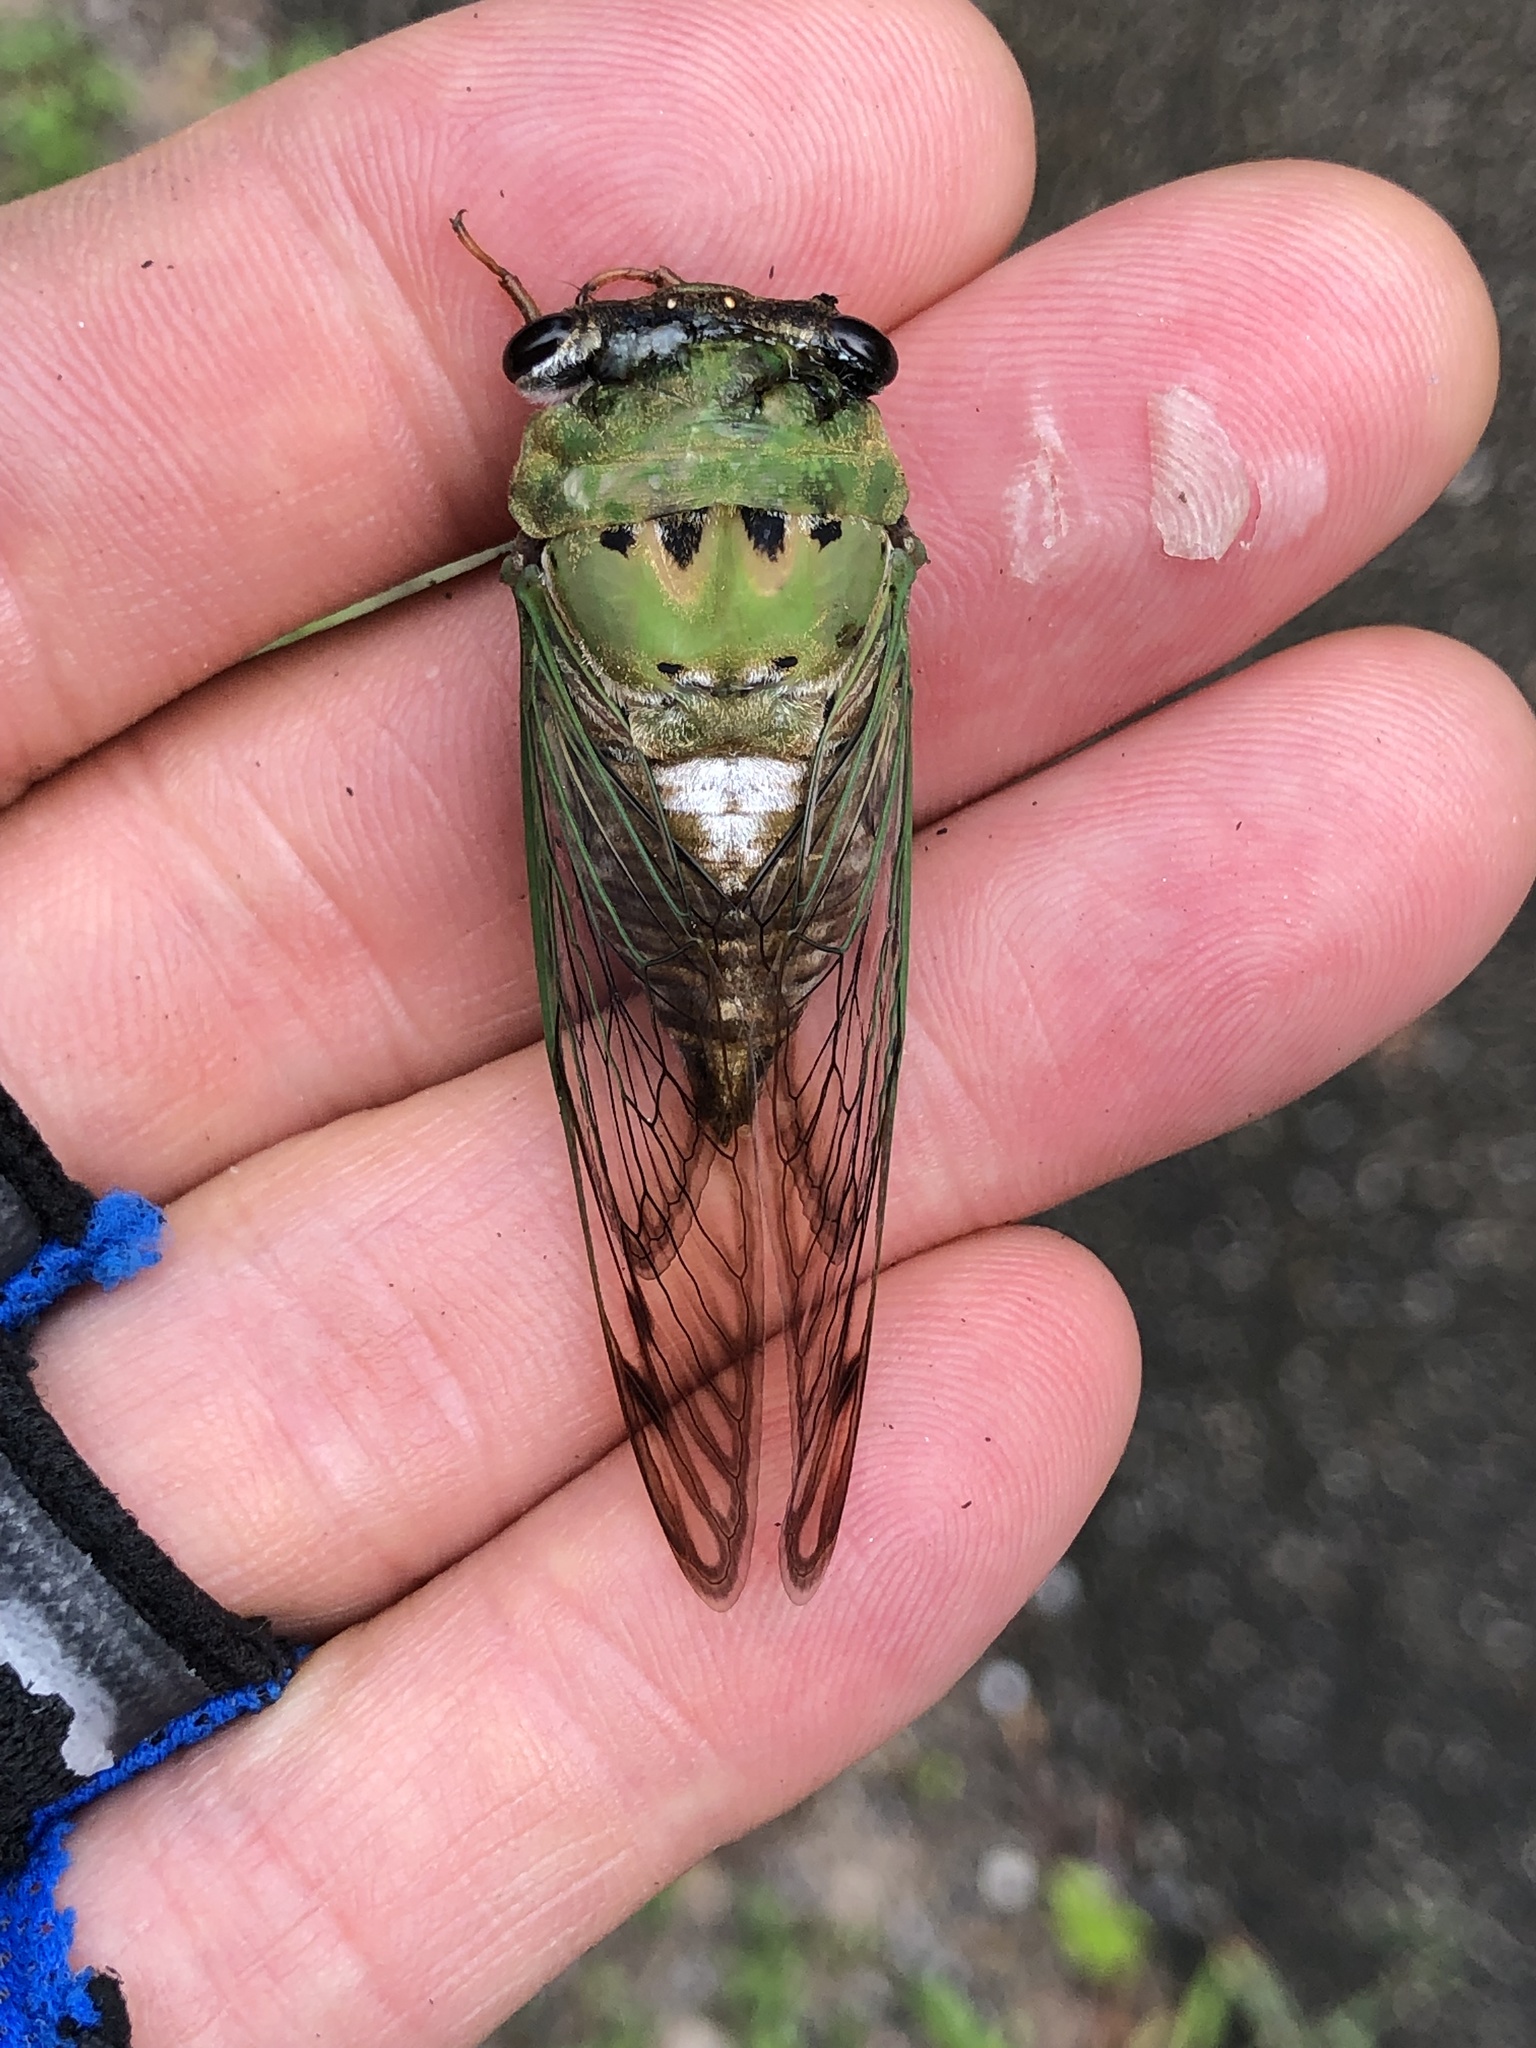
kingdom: Animalia
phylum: Arthropoda
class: Insecta
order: Hemiptera
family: Cicadidae
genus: Neotibicen
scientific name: Neotibicen superbus
